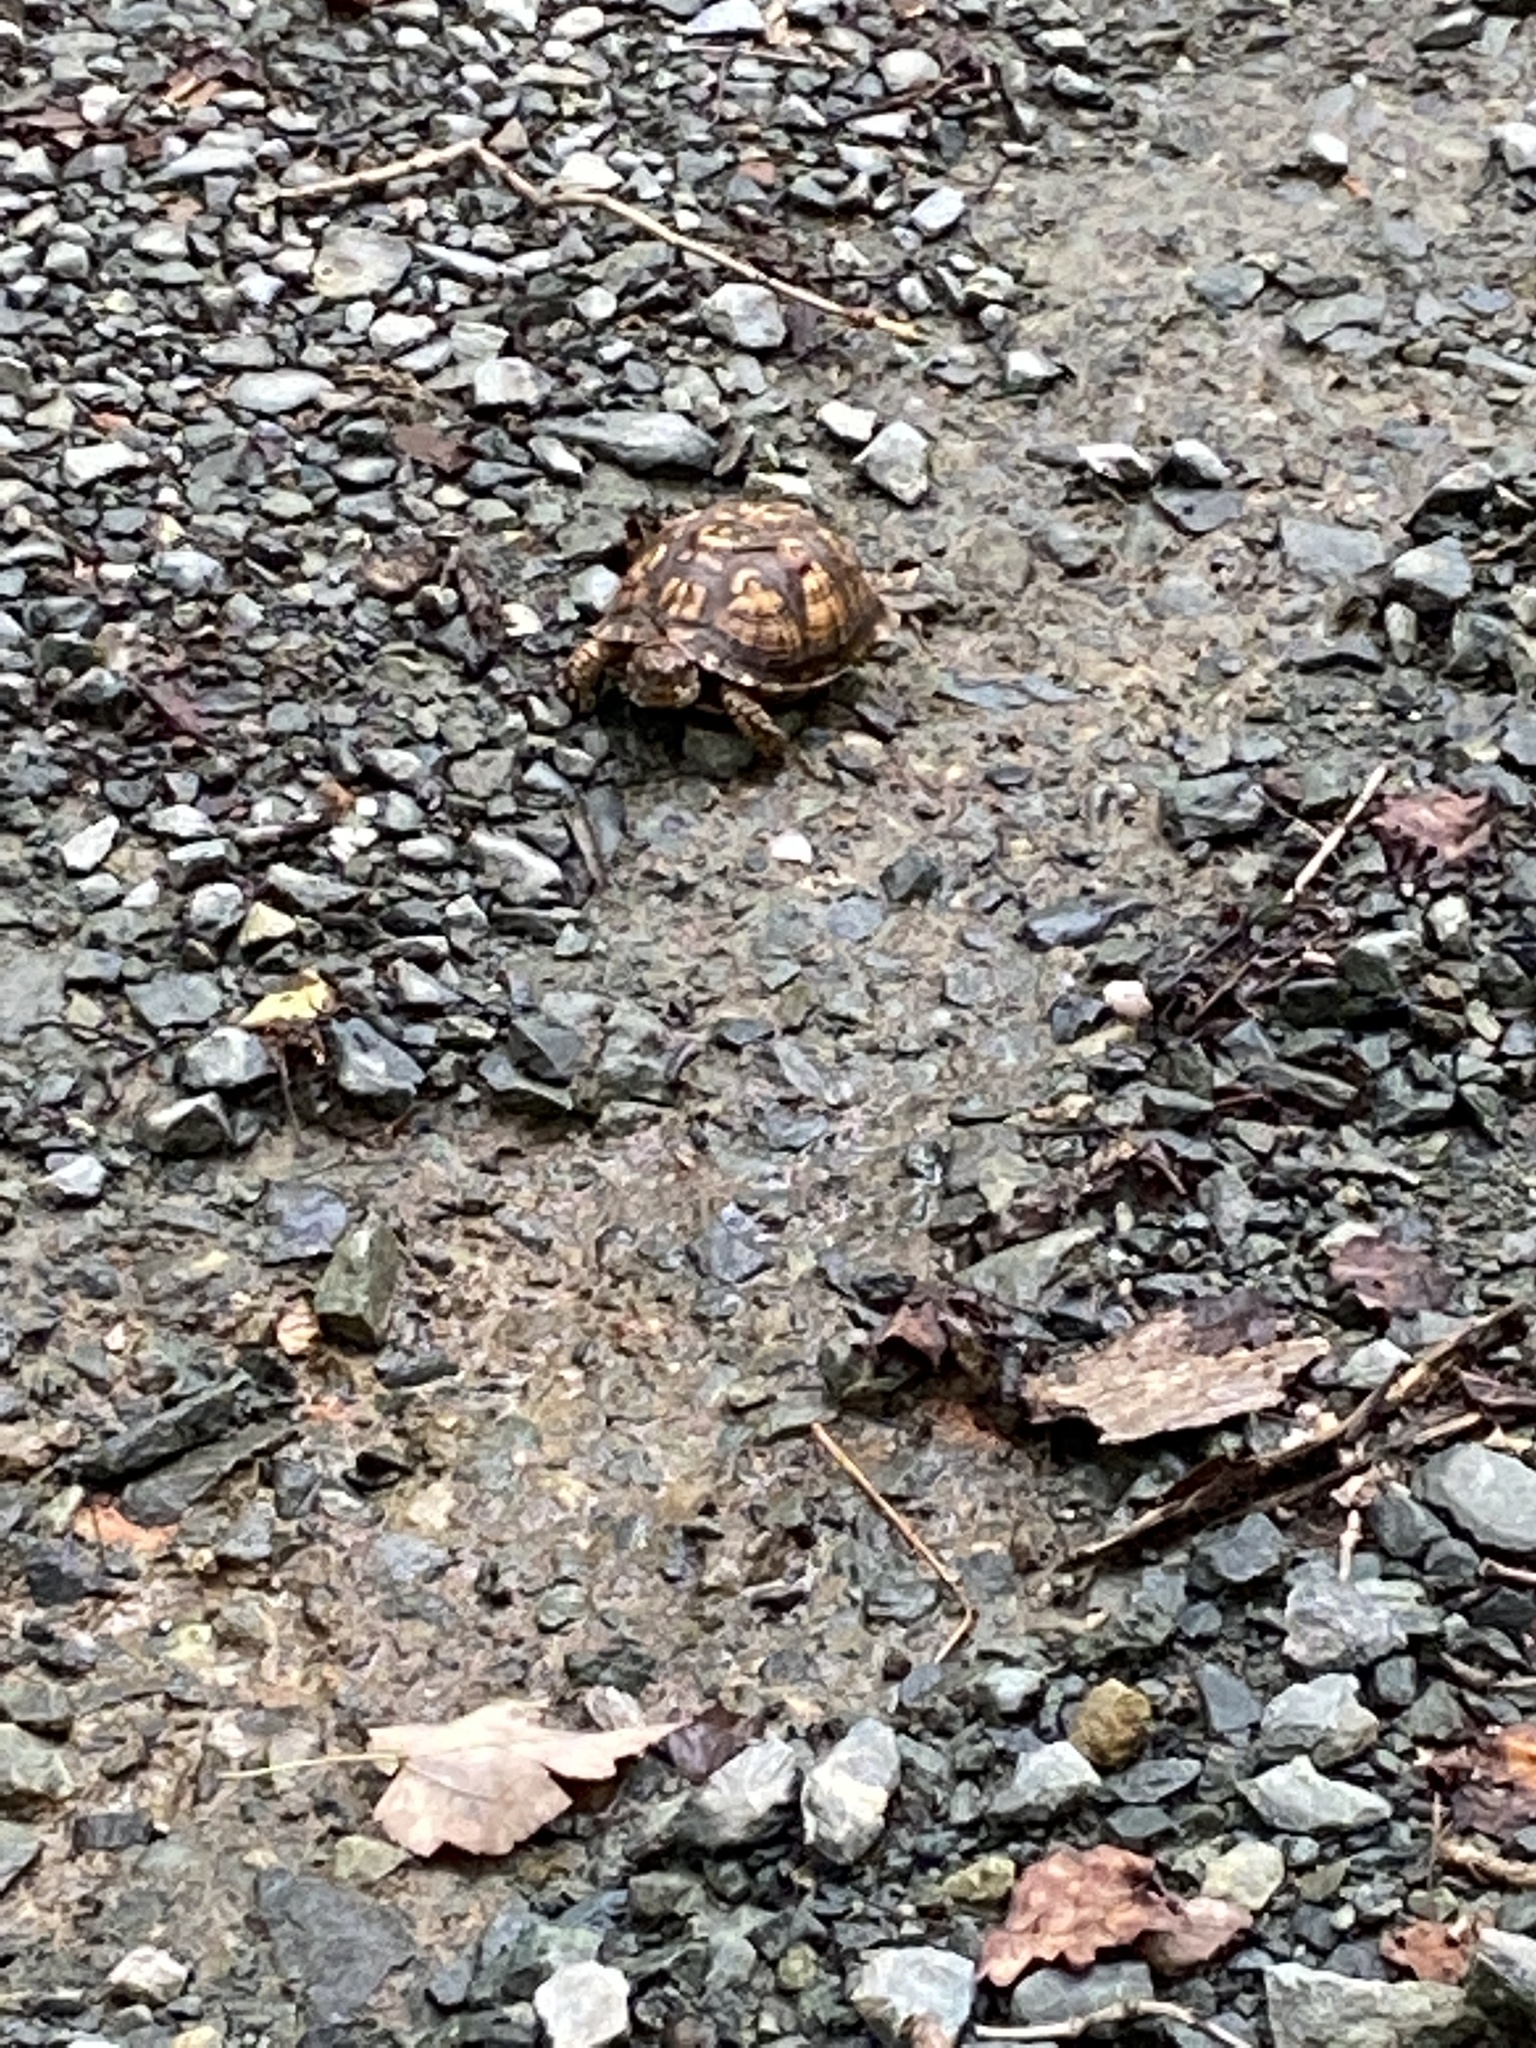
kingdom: Animalia
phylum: Chordata
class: Testudines
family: Emydidae
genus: Terrapene
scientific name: Terrapene carolina
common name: Common box turtle
